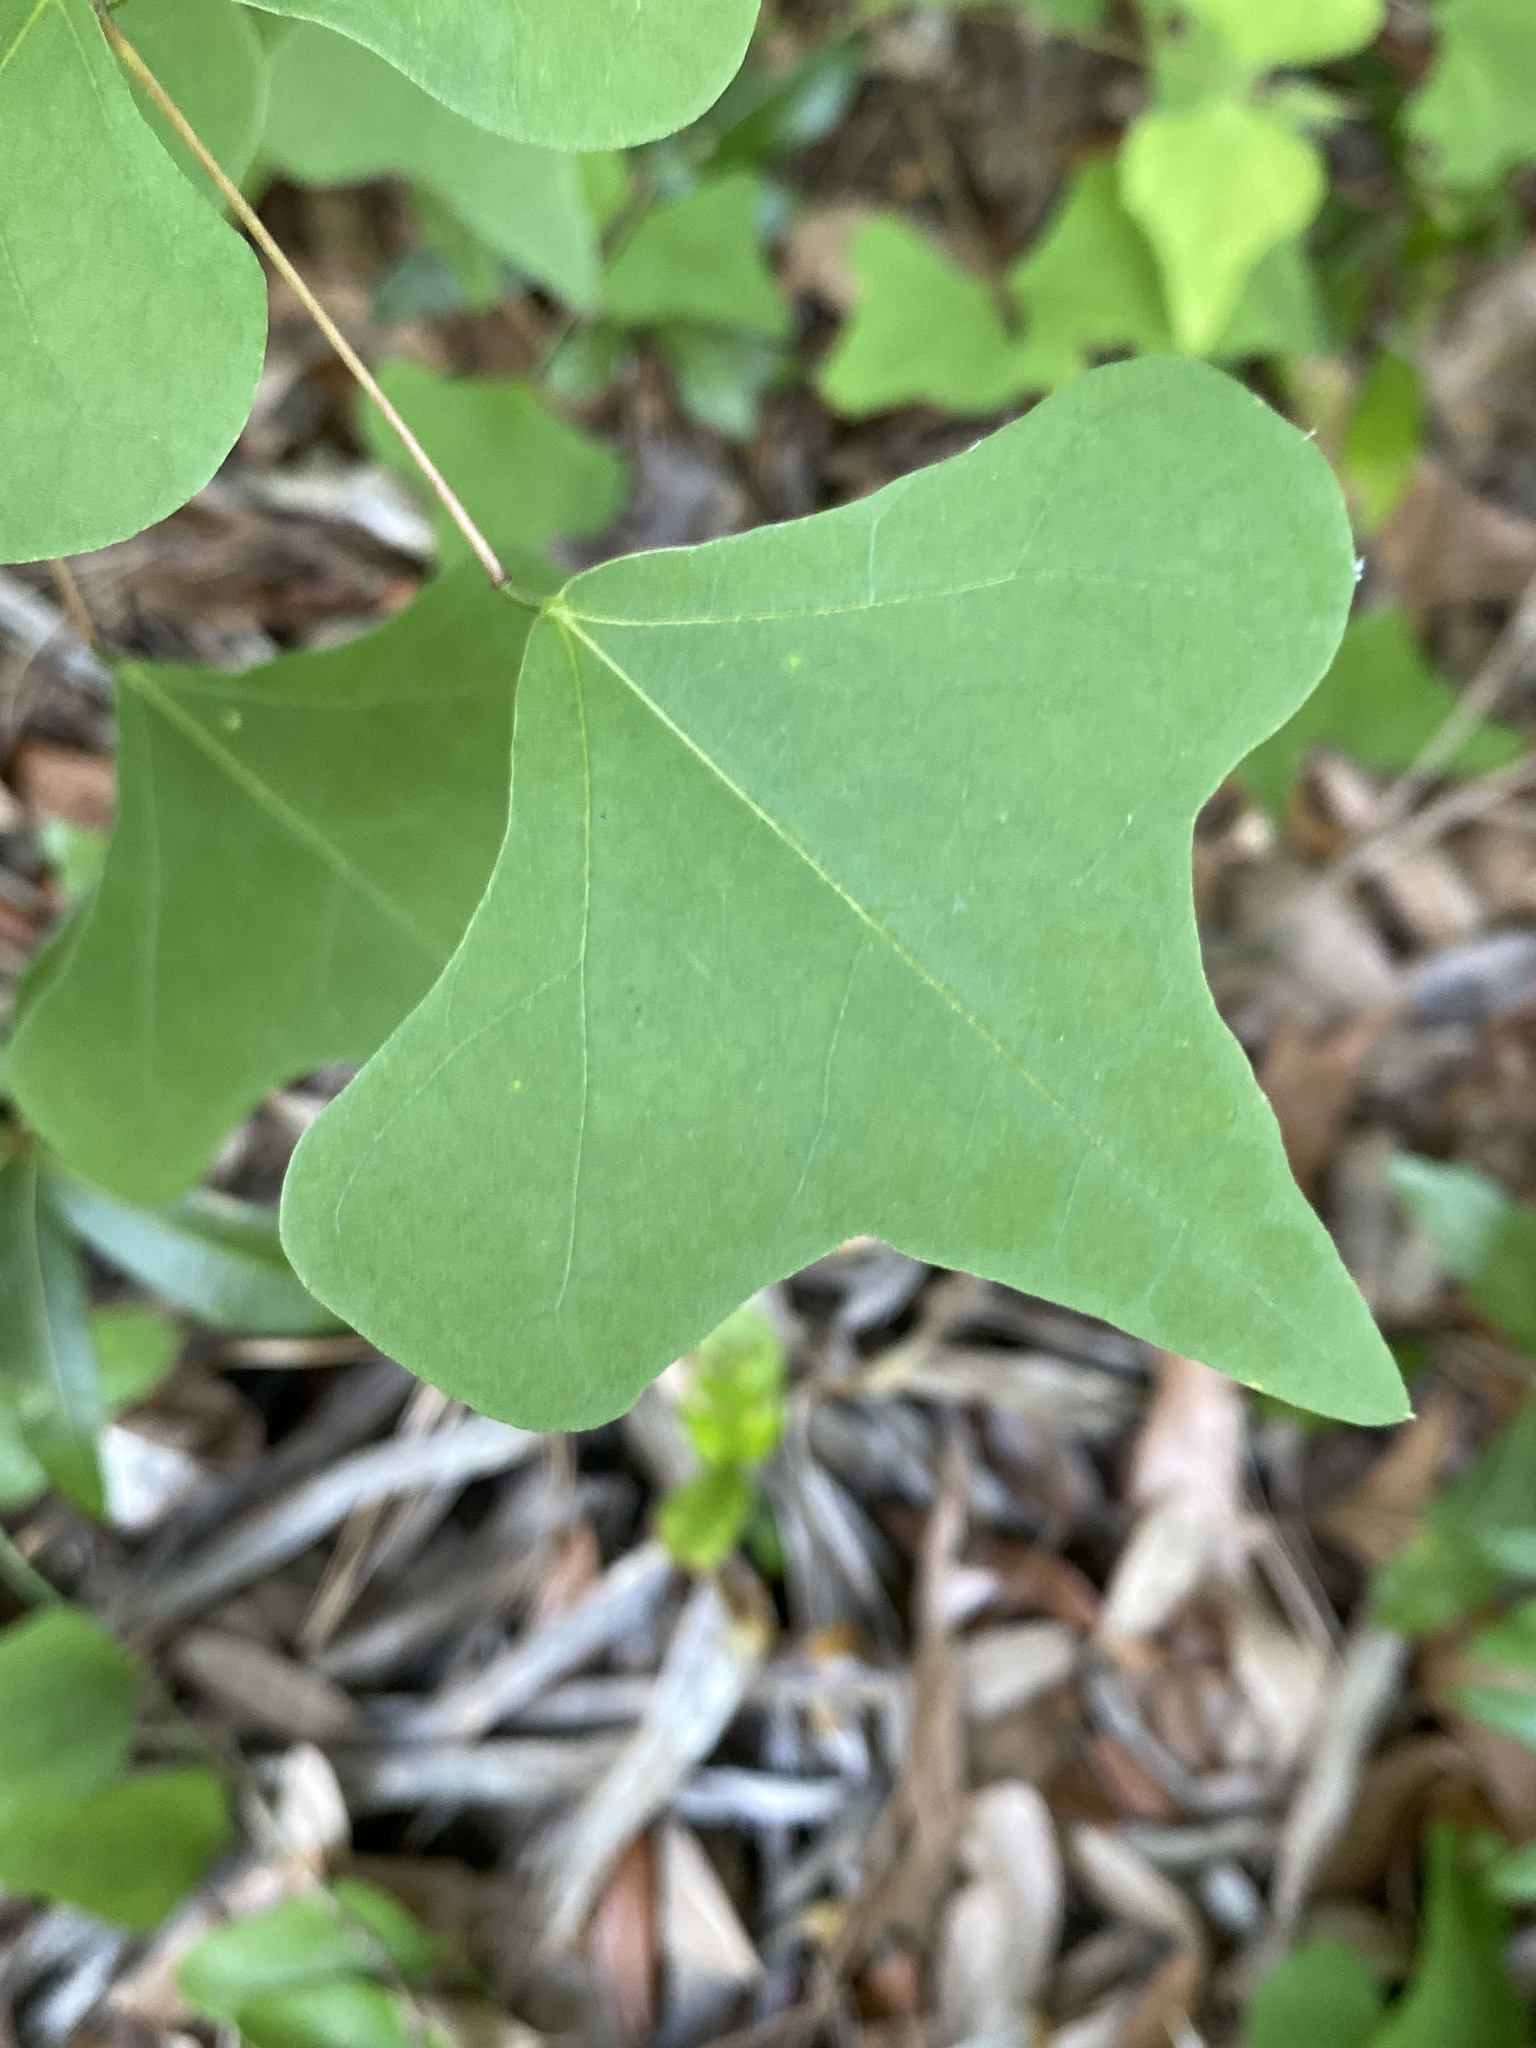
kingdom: Plantae
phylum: Tracheophyta
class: Magnoliopsida
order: Fabales
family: Fabaceae
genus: Erythrina
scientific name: Erythrina herbacea
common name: Coral-bean
